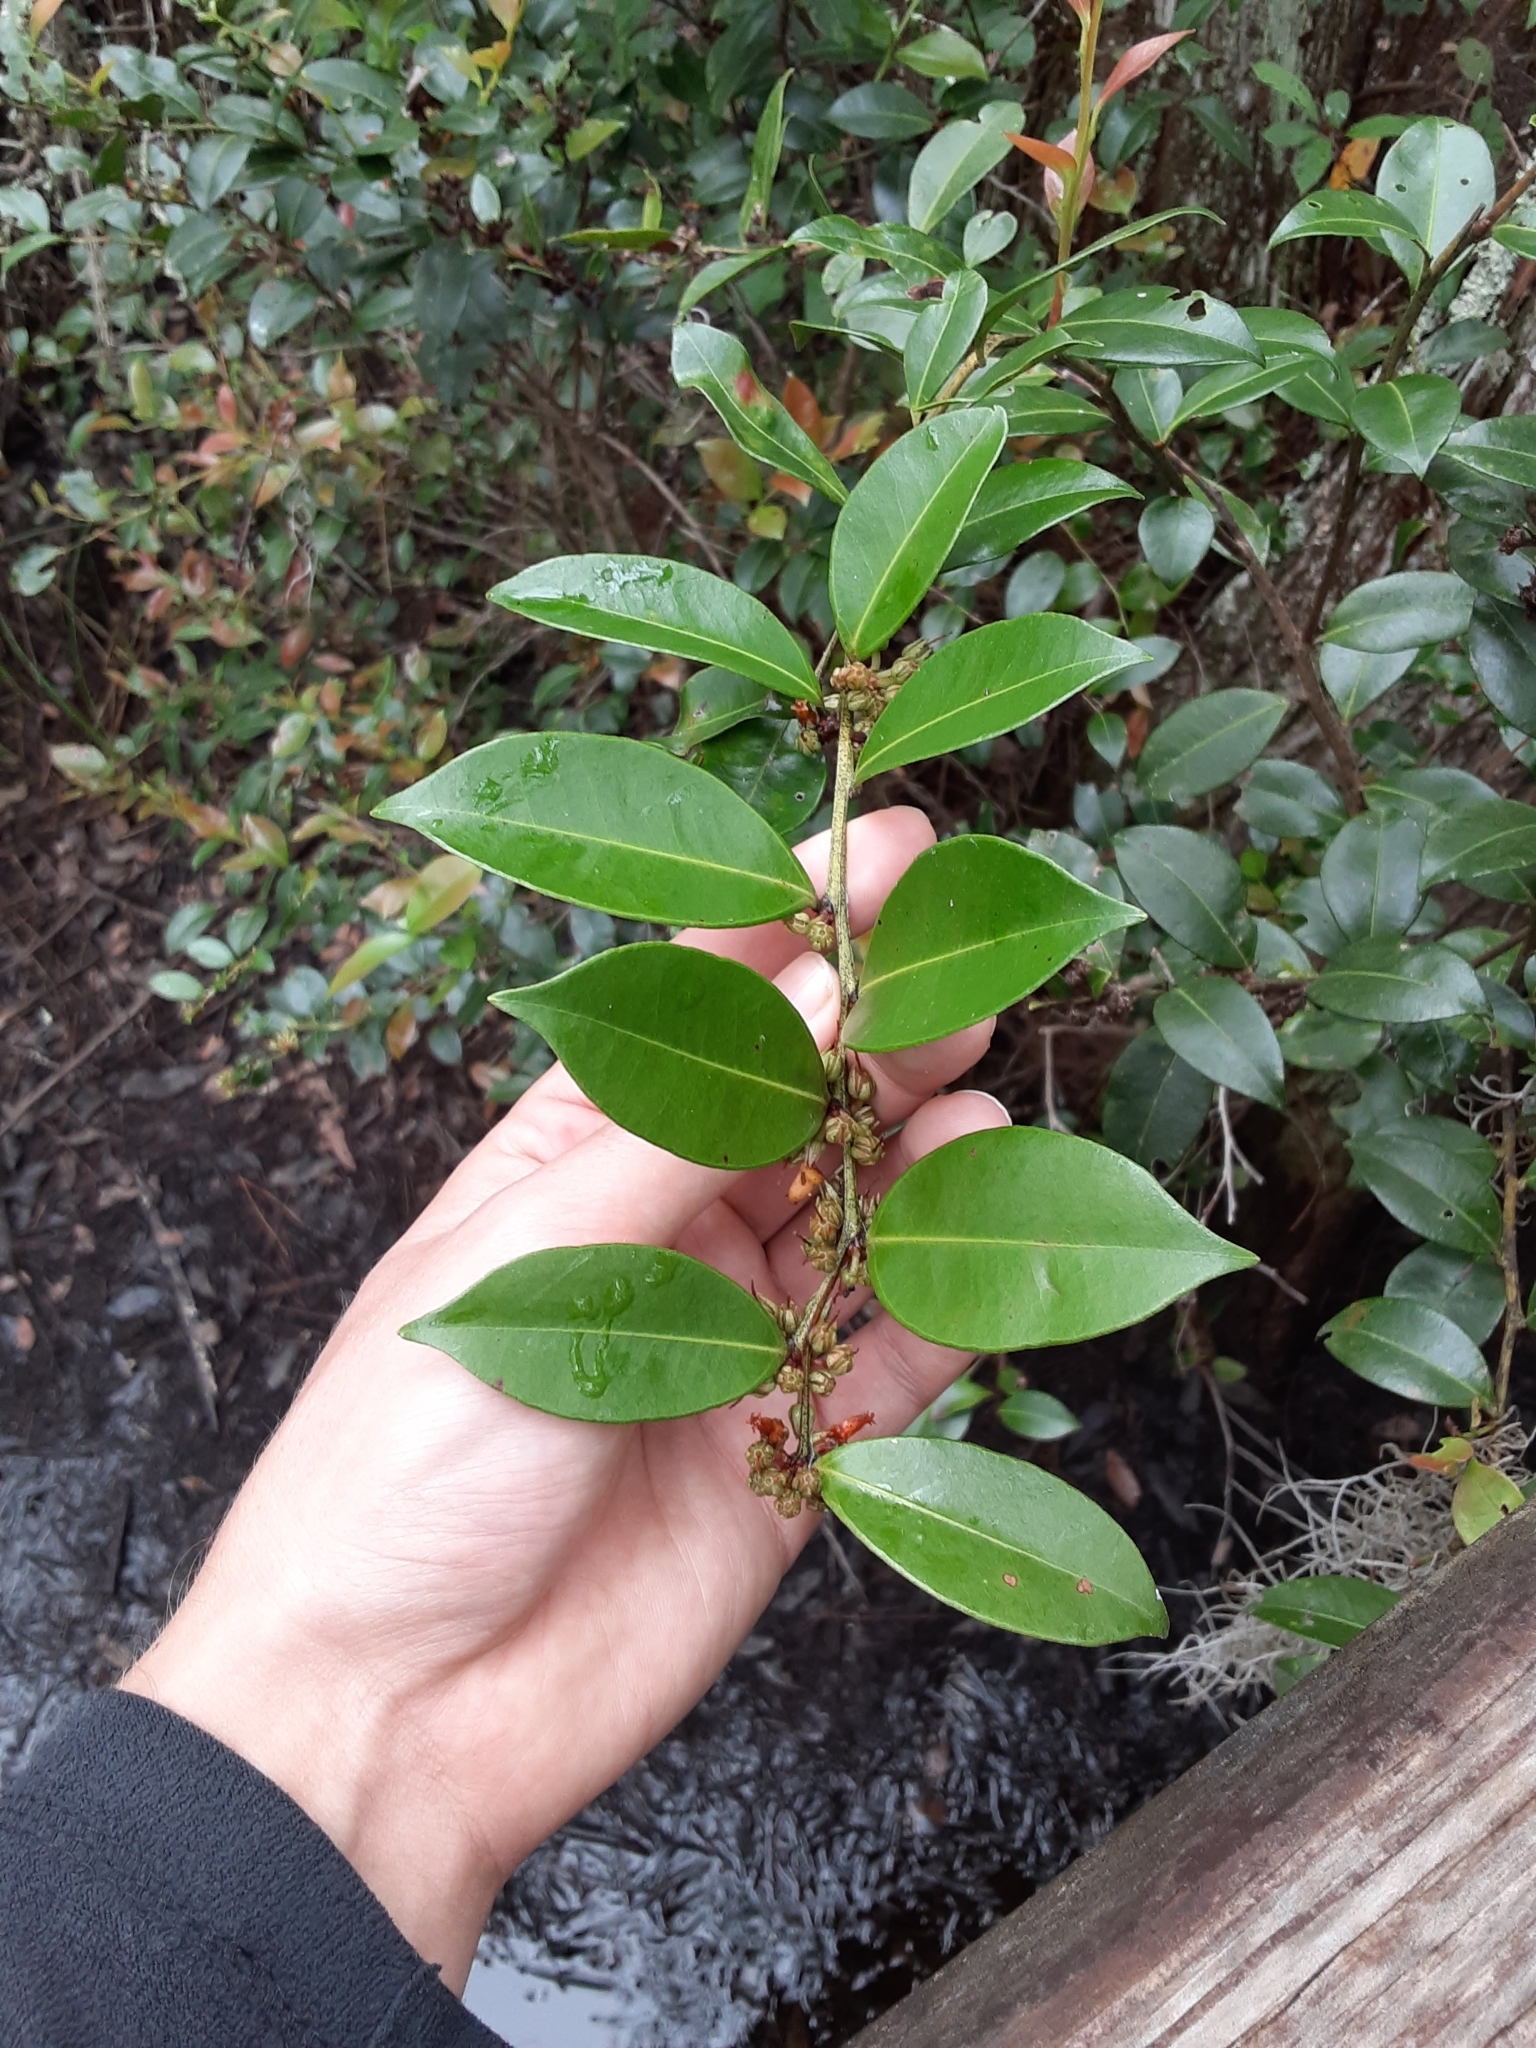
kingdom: Plantae
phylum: Tracheophyta
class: Magnoliopsida
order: Ericales
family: Ericaceae
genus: Lyonia
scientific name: Lyonia lucida
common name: Fetterbush
